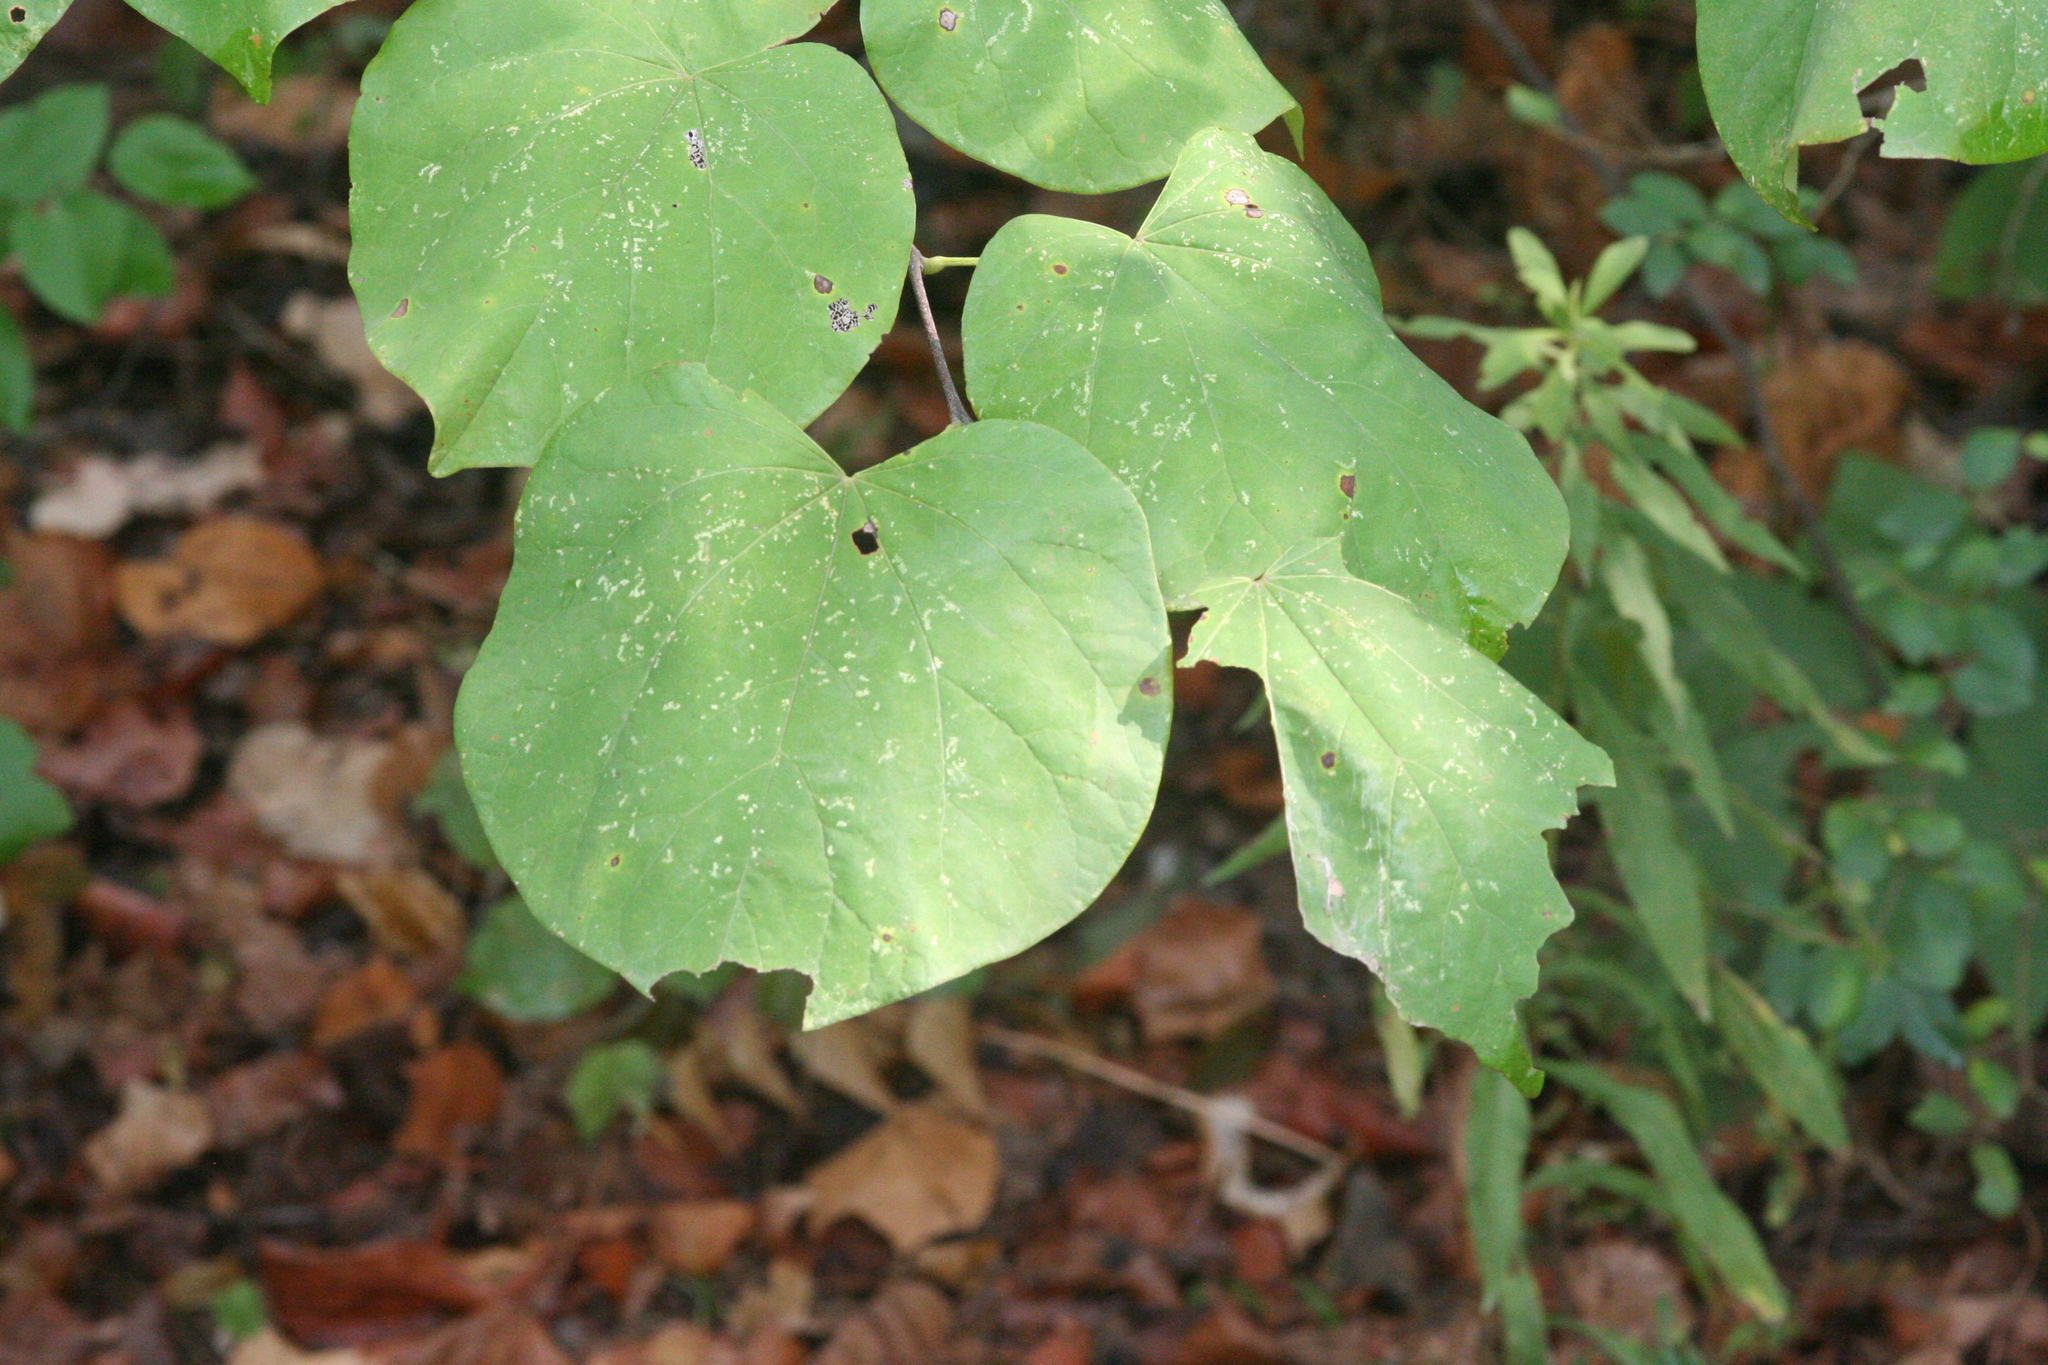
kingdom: Plantae
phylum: Tracheophyta
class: Magnoliopsida
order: Fabales
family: Fabaceae
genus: Cercis
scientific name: Cercis canadensis
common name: Eastern redbud
